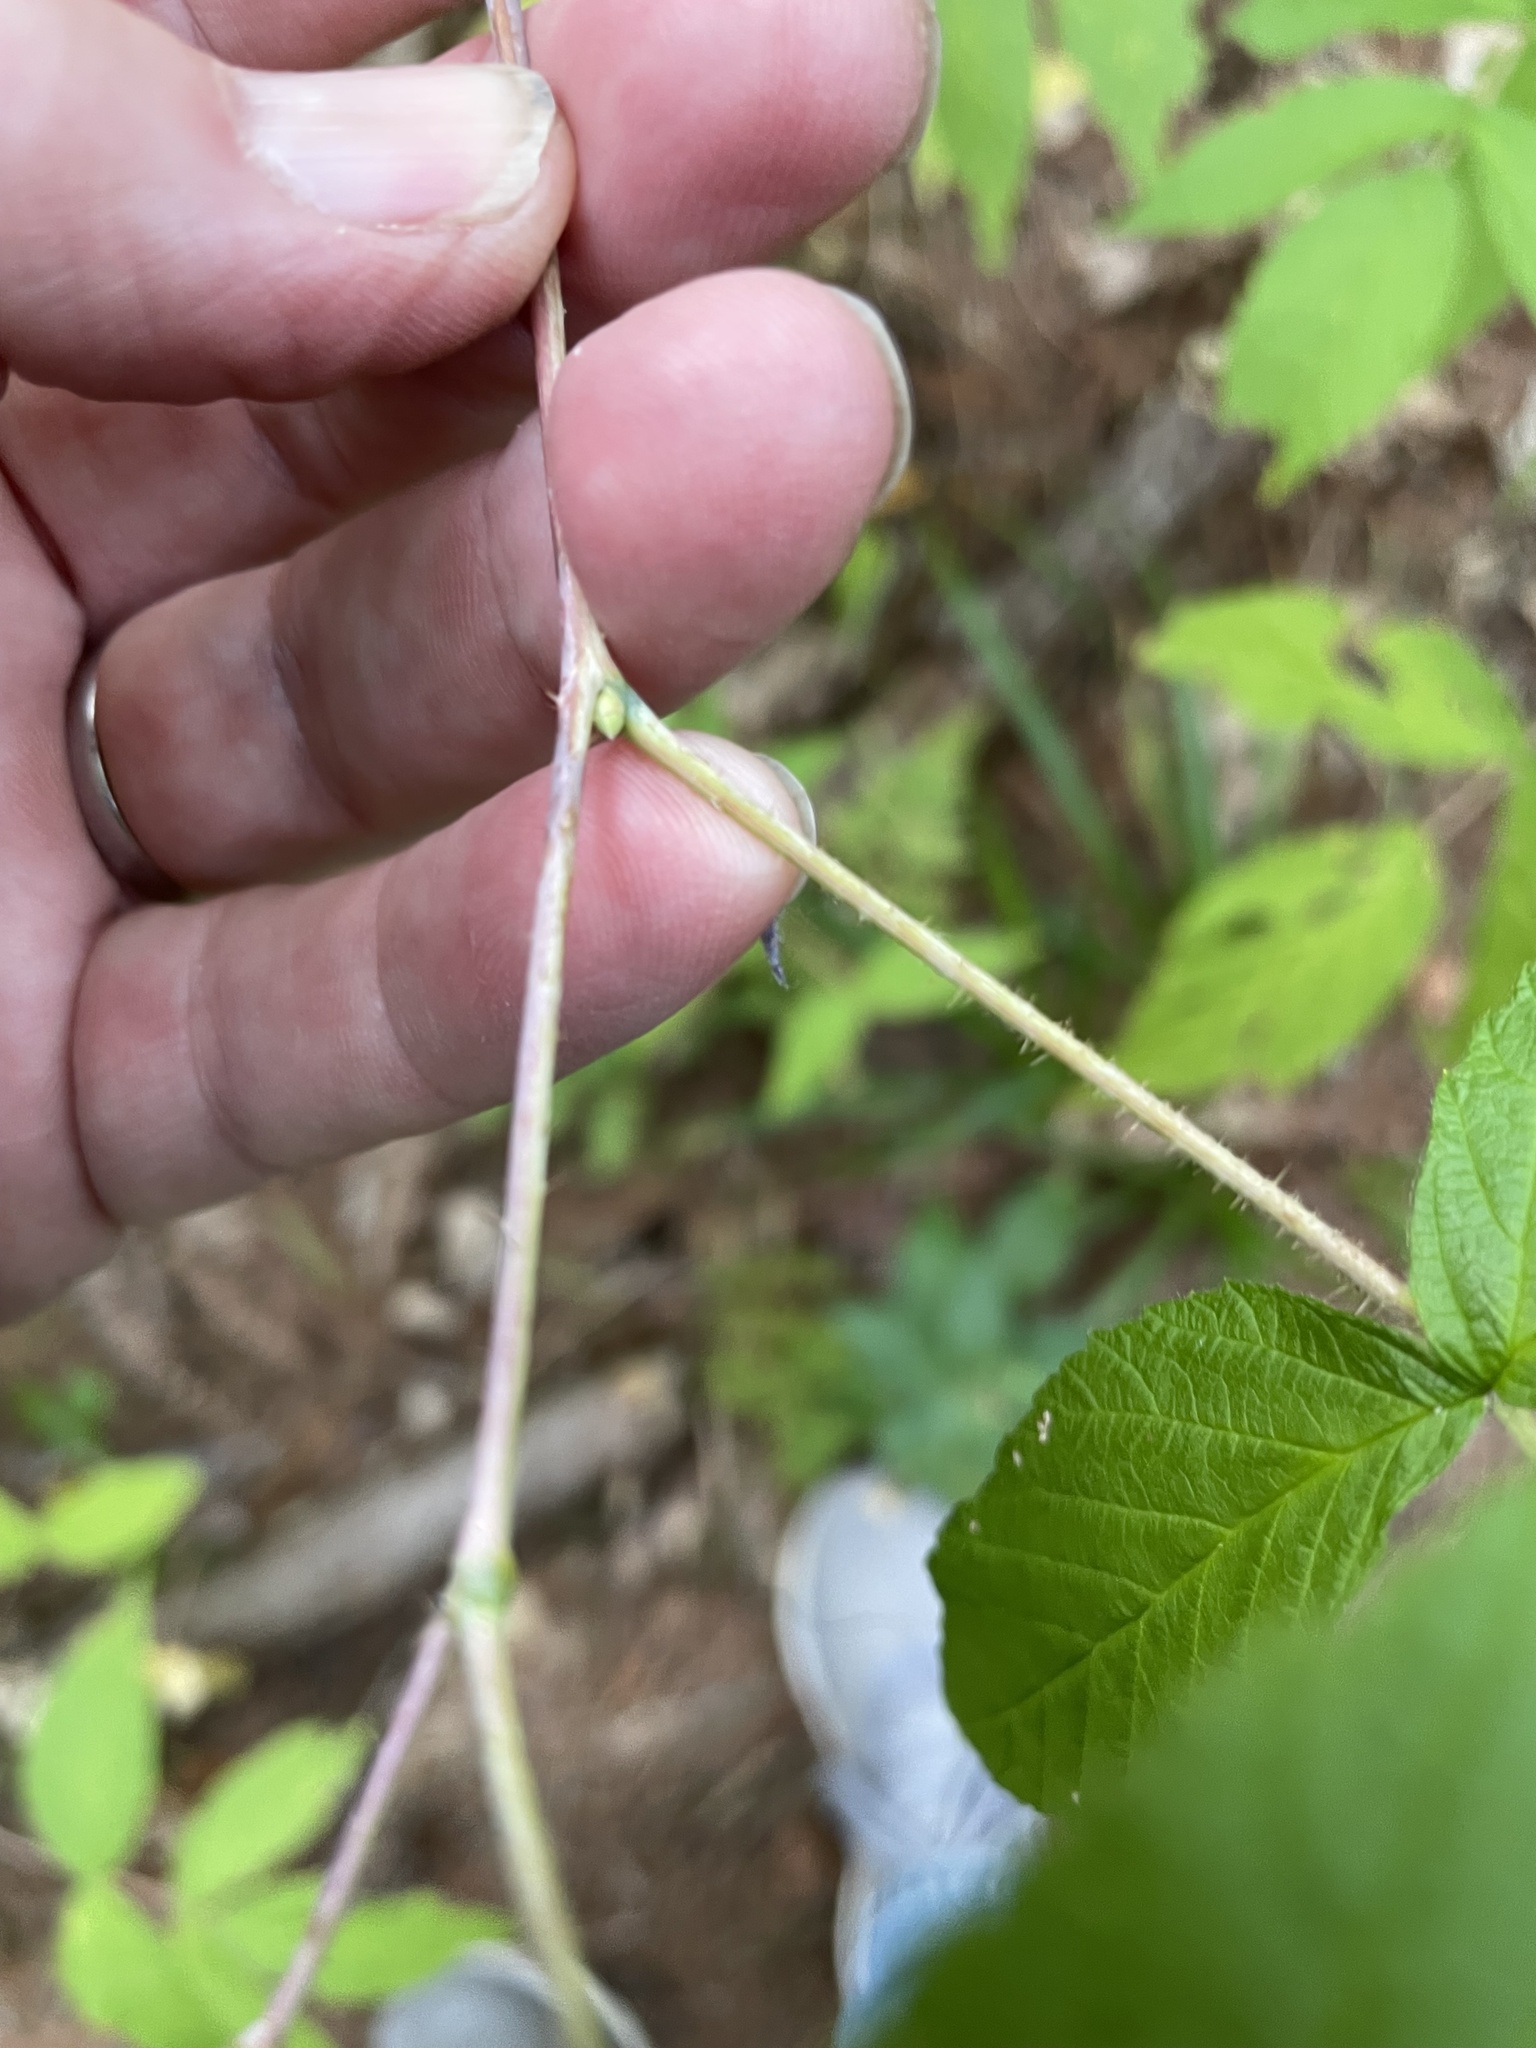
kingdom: Plantae
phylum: Tracheophyta
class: Magnoliopsida
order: Rosales
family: Rosaceae
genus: Rubus
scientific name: Rubus idaeus
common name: Raspberry
